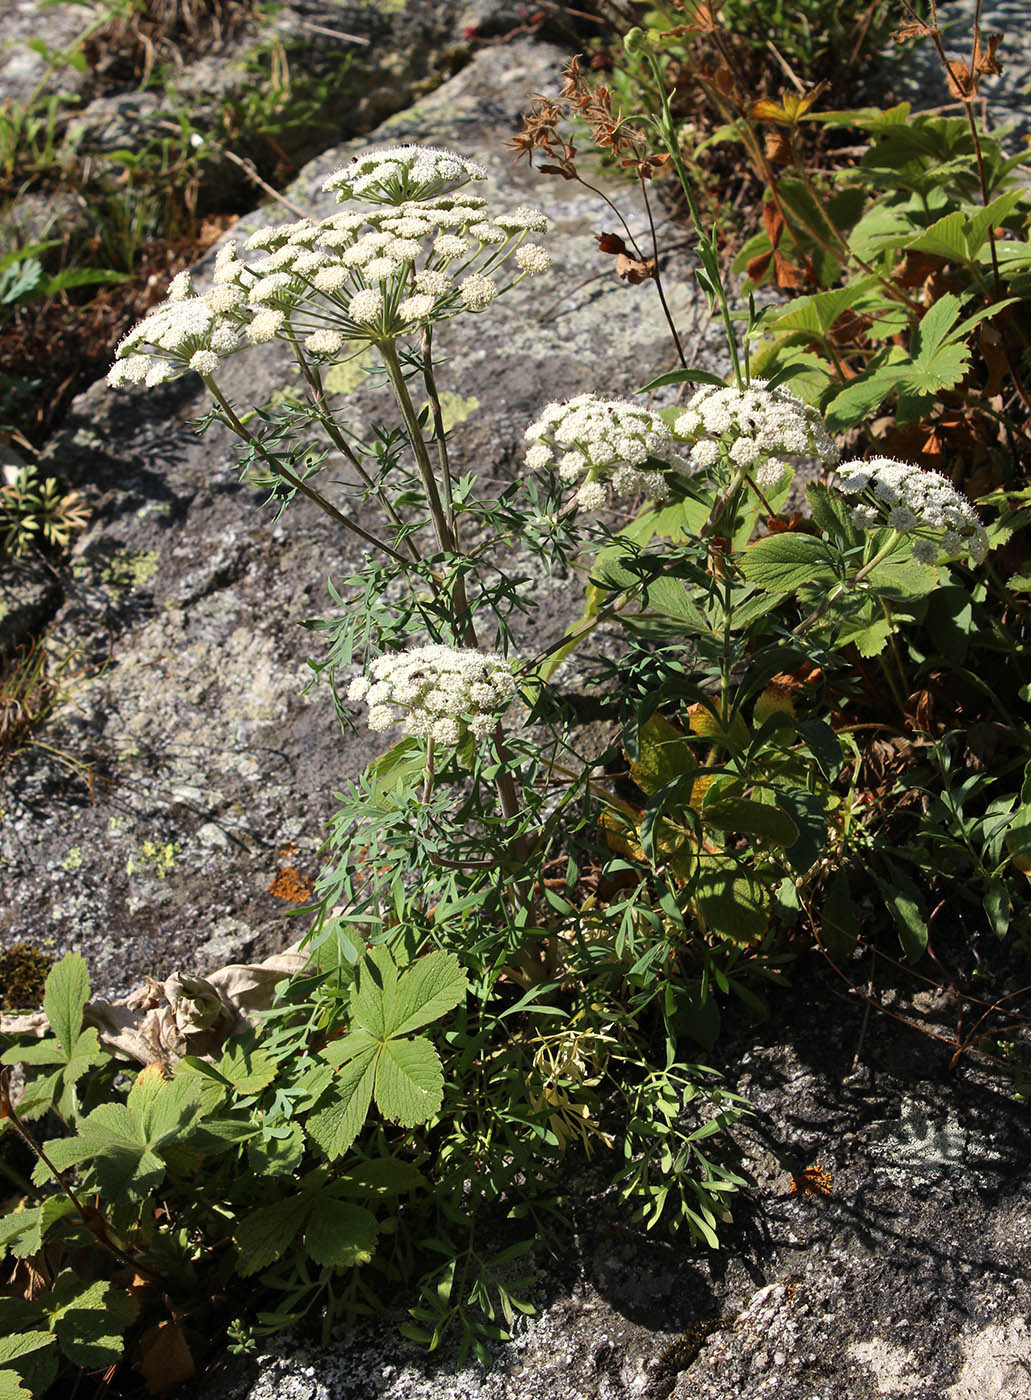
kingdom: Plantae
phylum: Tracheophyta
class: Magnoliopsida
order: Apiales
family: Apiaceae
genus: Hippomarathrum
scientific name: Hippomarathrum petraeum
